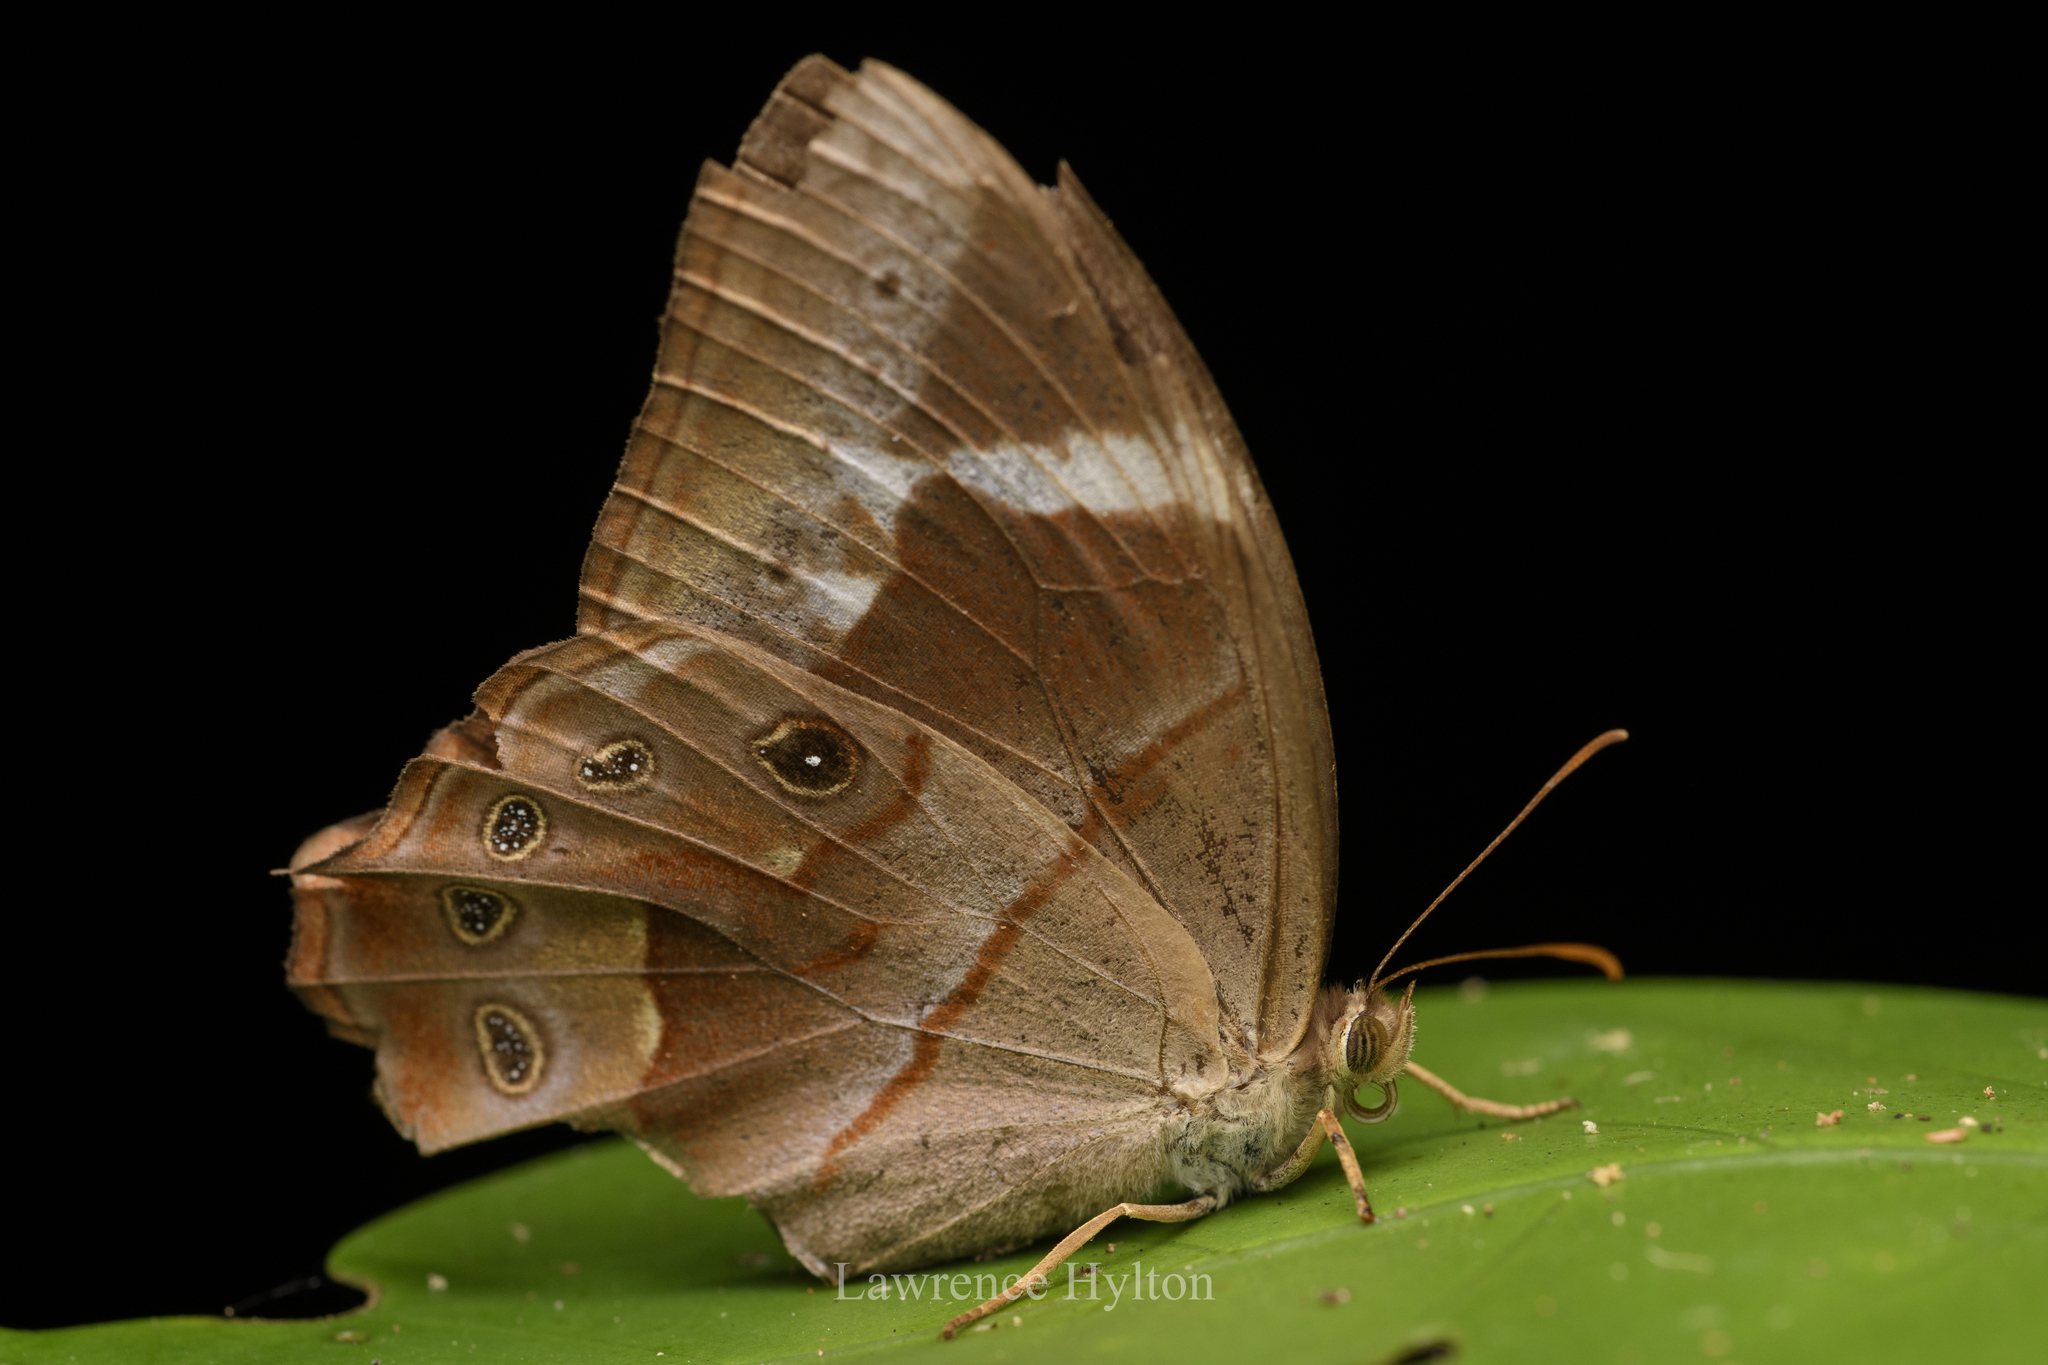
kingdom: Animalia
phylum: Arthropoda
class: Insecta
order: Lepidoptera
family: Nymphalidae
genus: Lethe
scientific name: Lethe chandica
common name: Angled red forester
